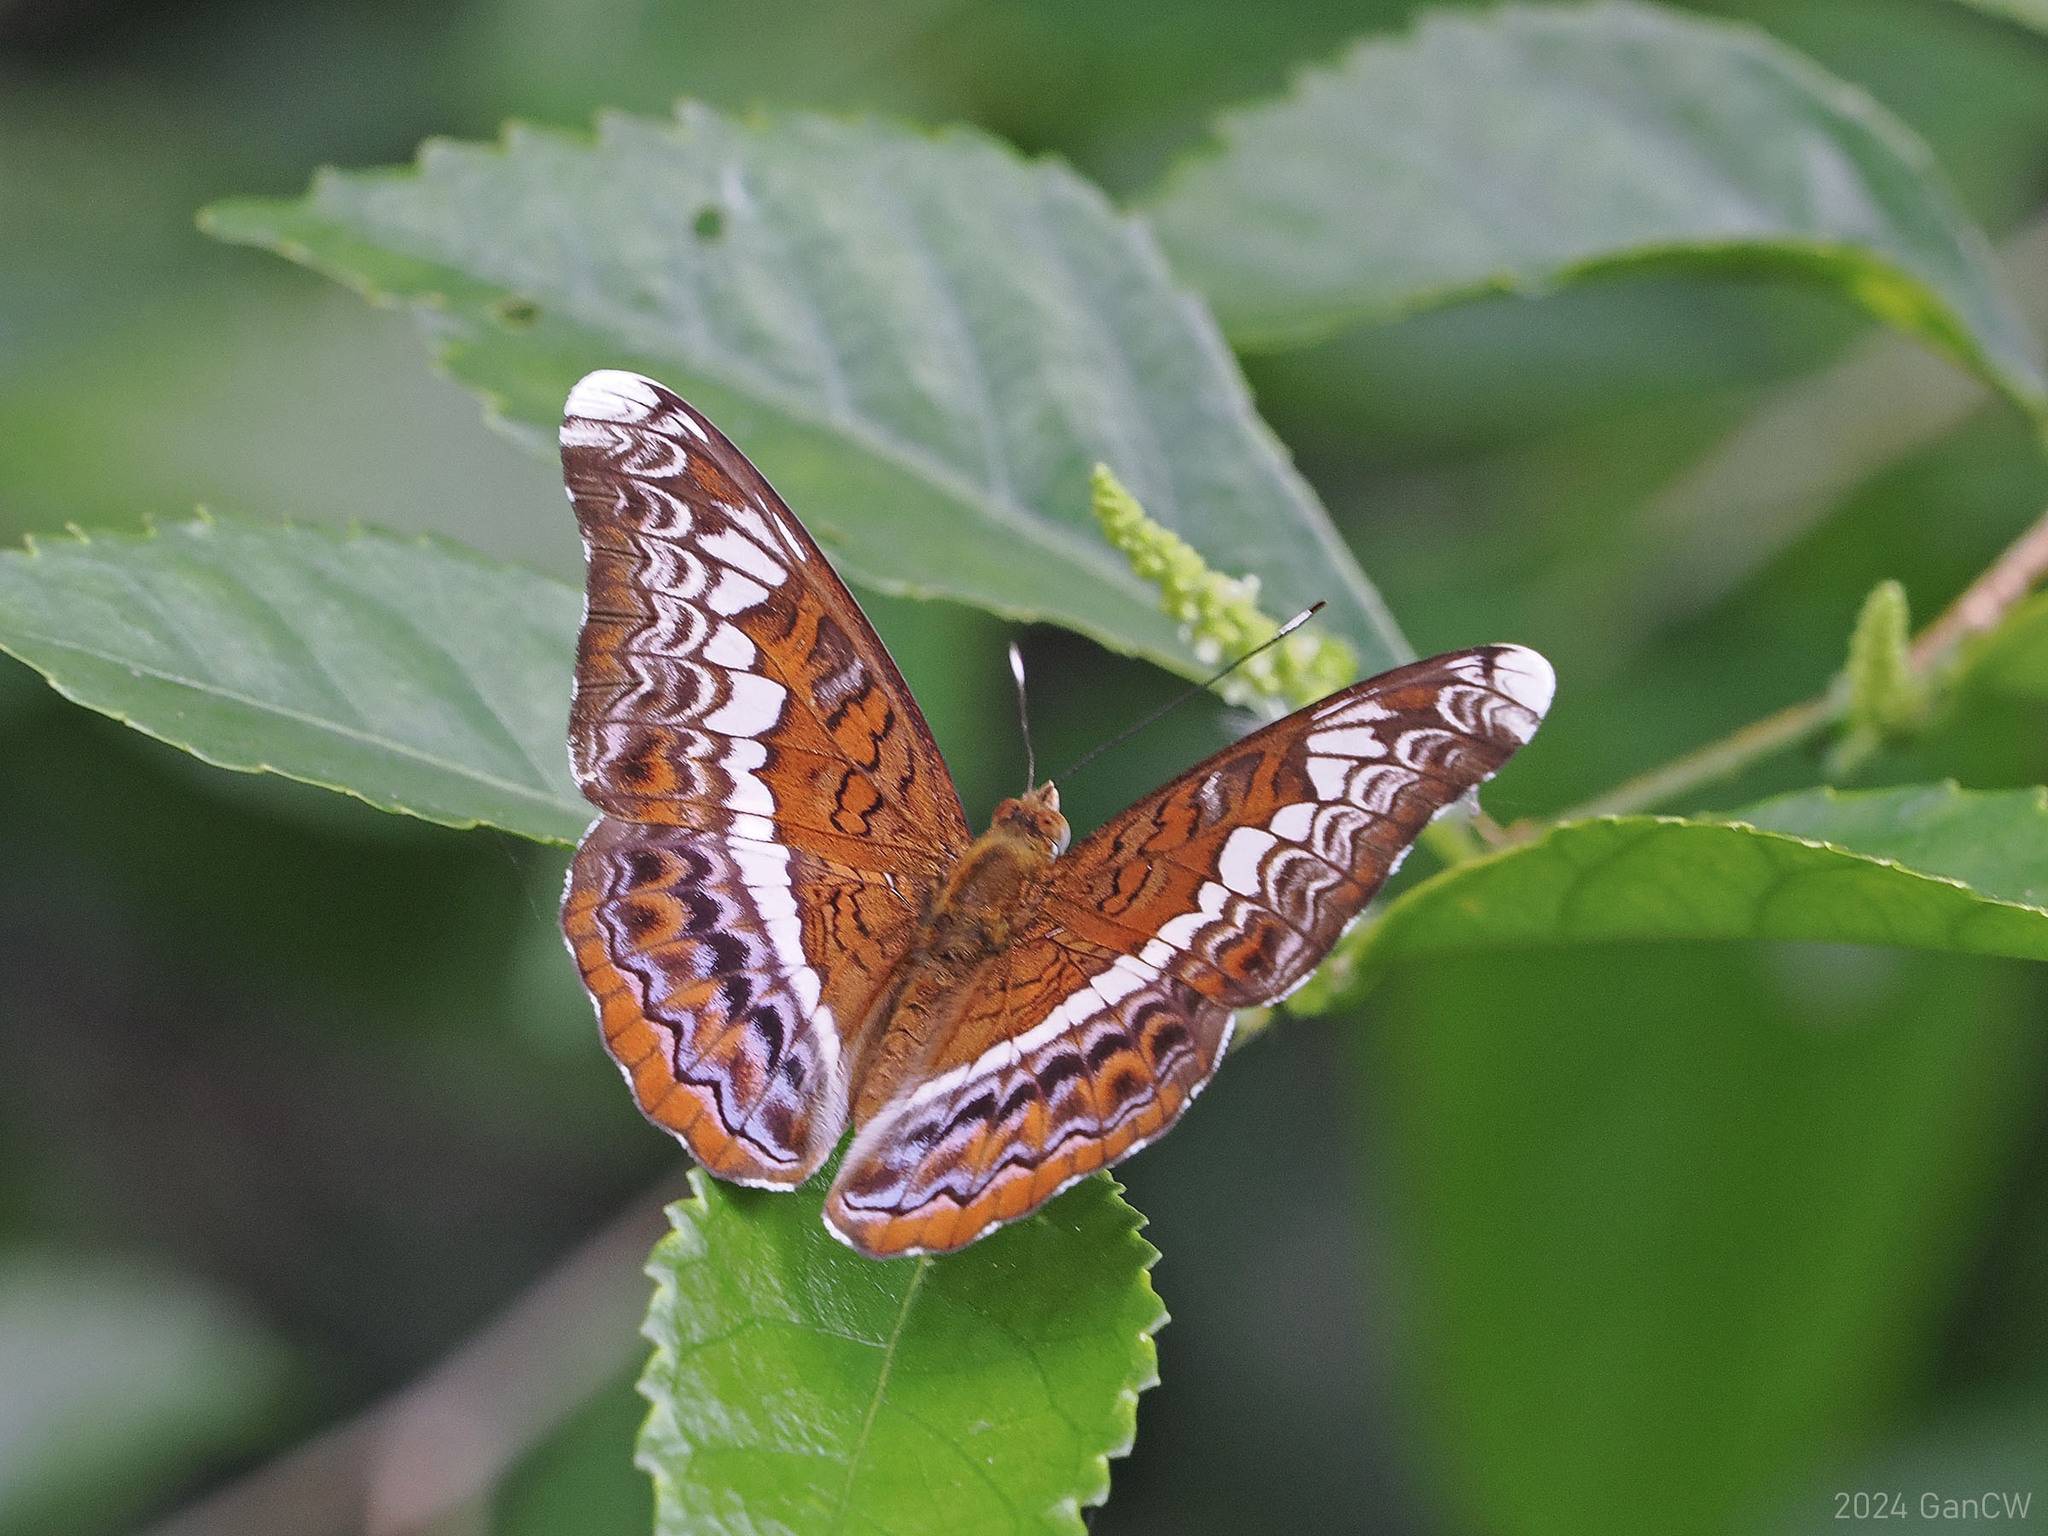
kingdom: Animalia
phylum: Arthropoda
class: Insecta
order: Lepidoptera
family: Nymphalidae
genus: Lebadea
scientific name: Lebadea martha
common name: Knight
